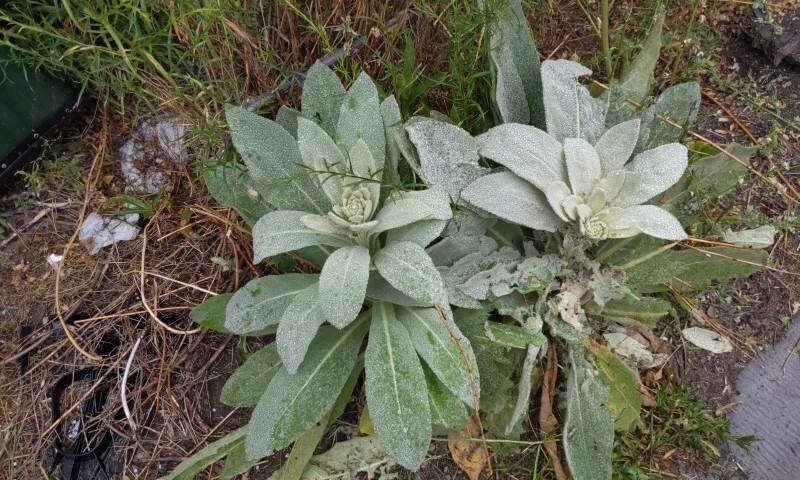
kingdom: Plantae
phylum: Tracheophyta
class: Magnoliopsida
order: Lamiales
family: Scrophulariaceae
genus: Verbascum
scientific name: Verbascum thapsus
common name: Common mullein
